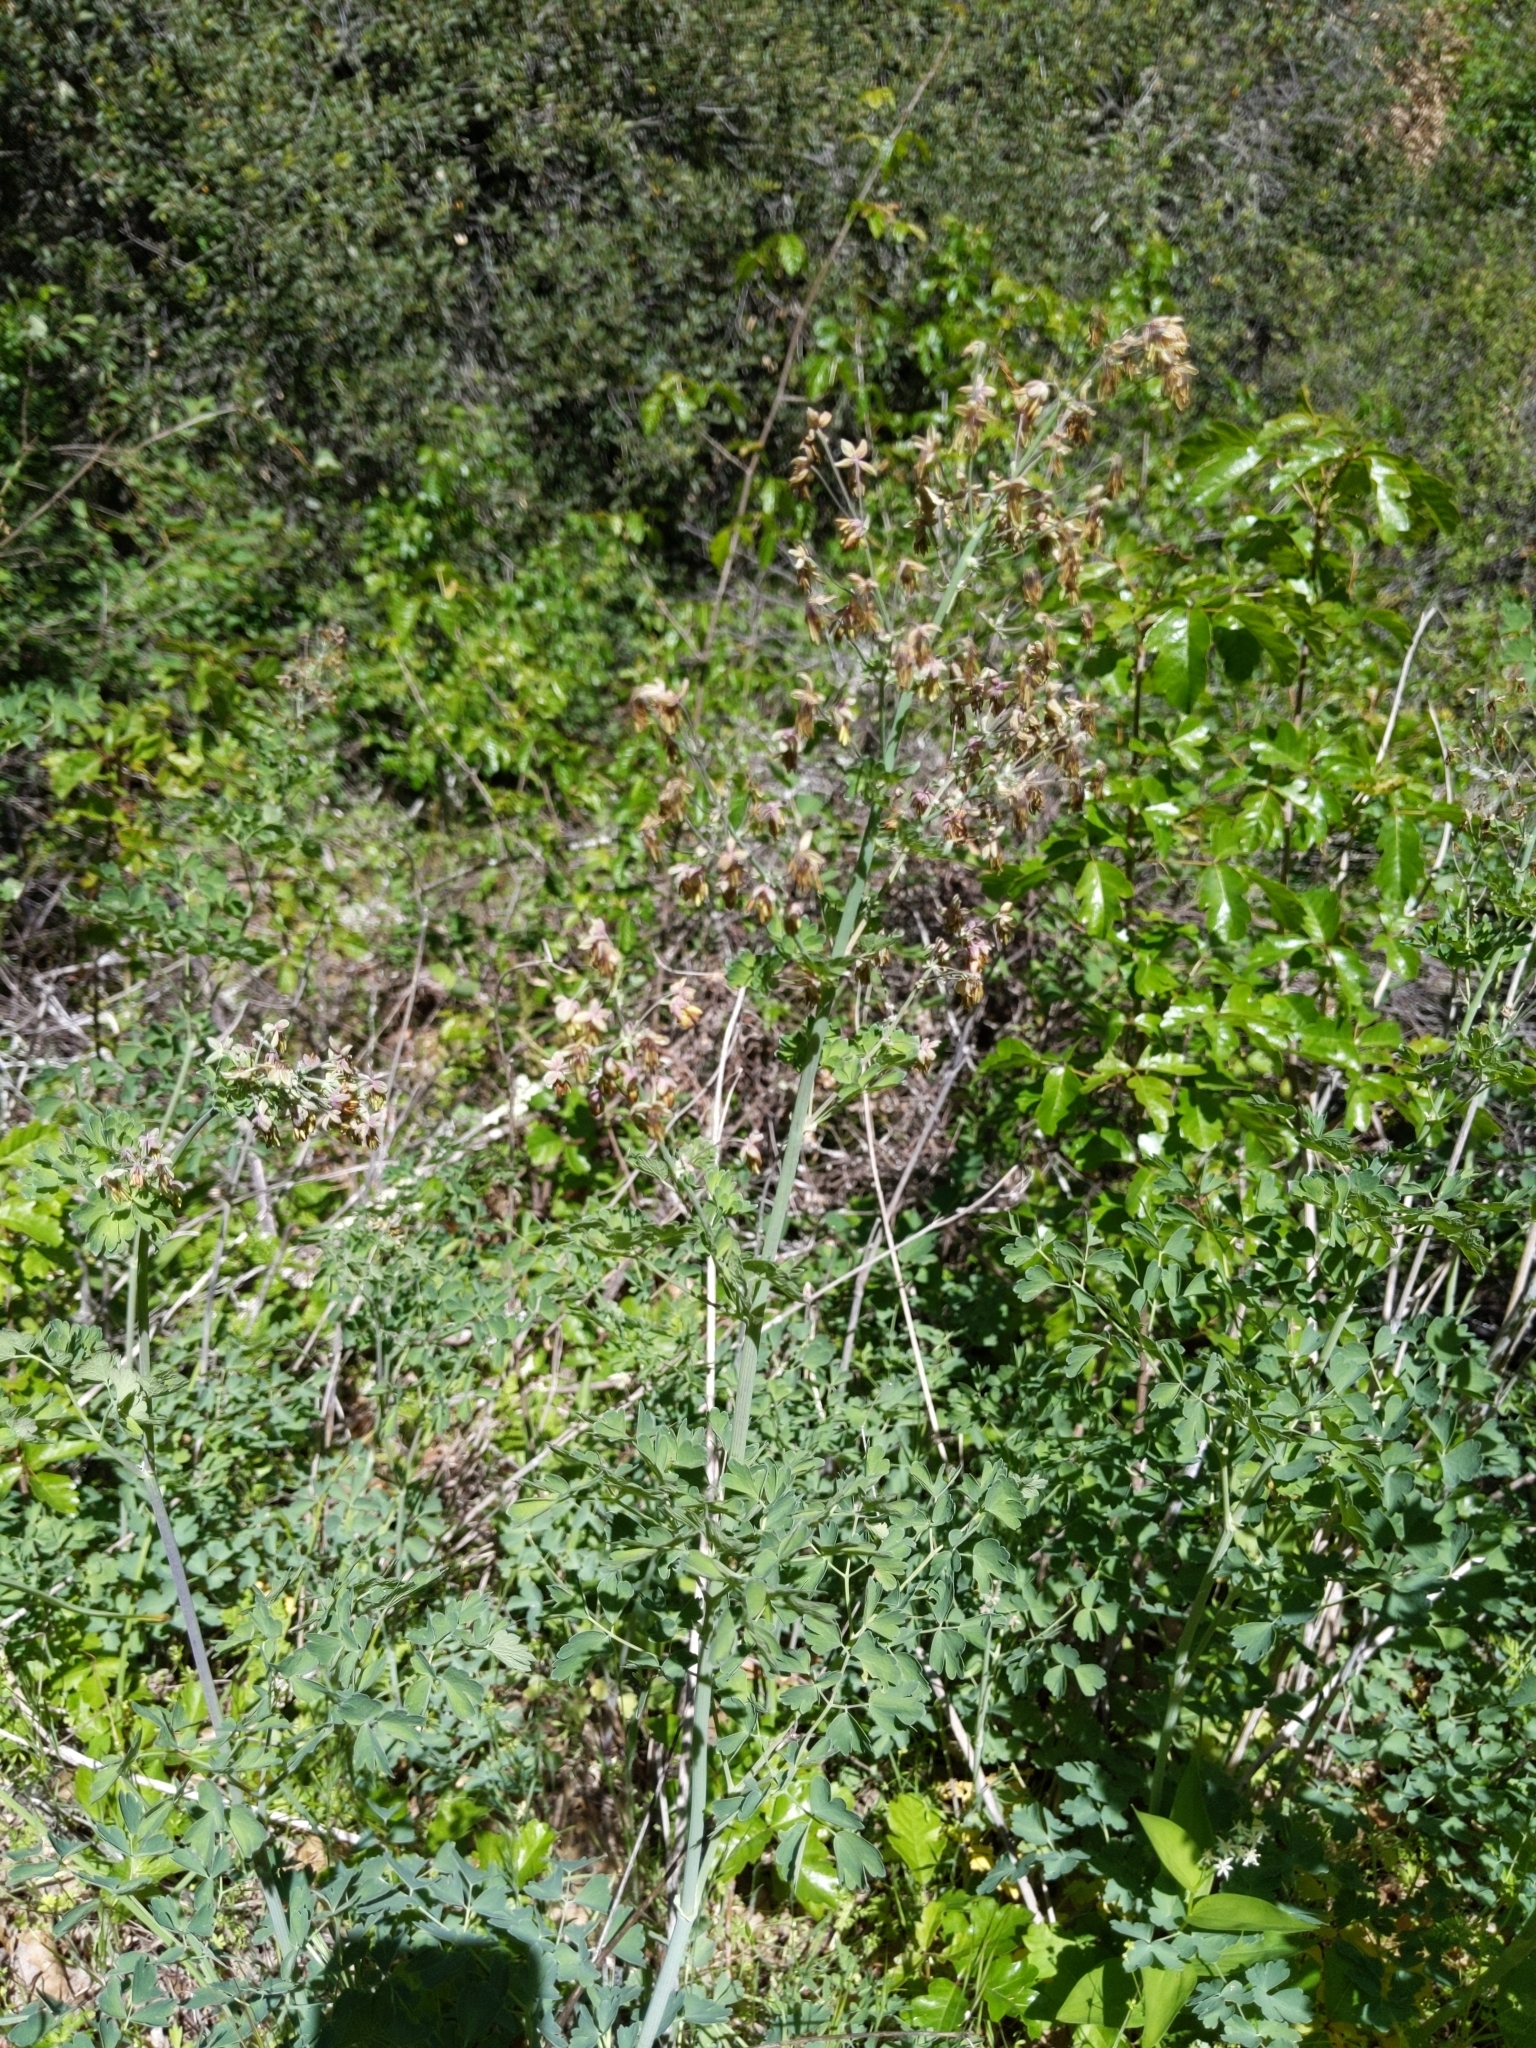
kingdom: Plantae
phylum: Tracheophyta
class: Magnoliopsida
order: Ranunculales
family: Ranunculaceae
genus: Thalictrum
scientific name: Thalictrum fendleri
